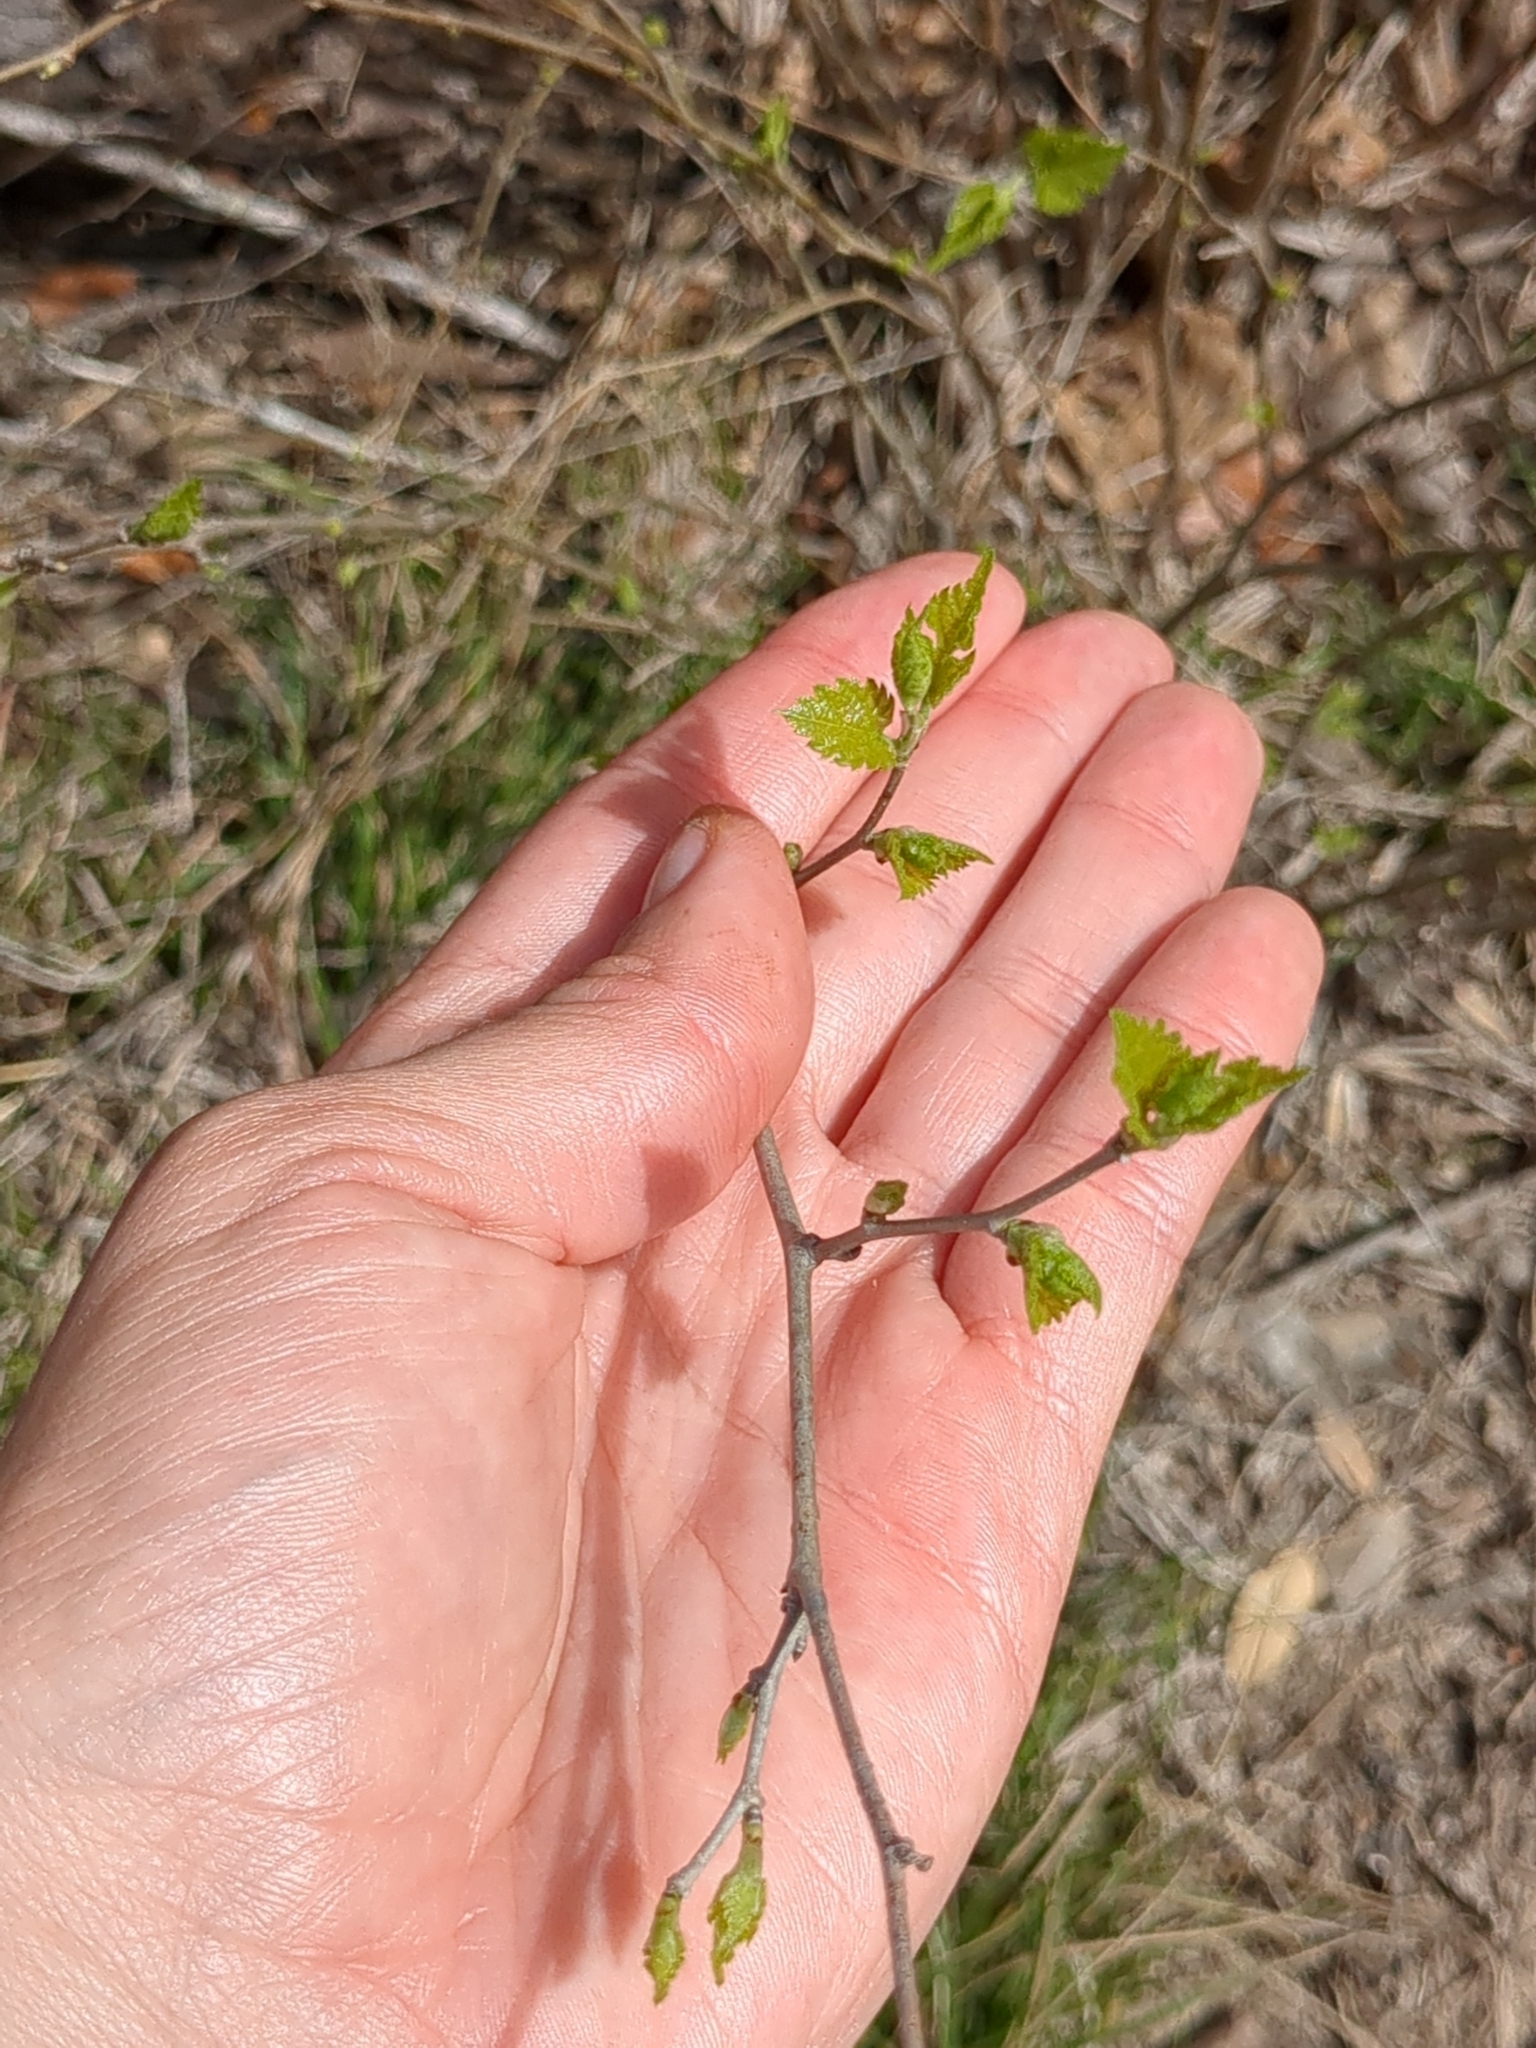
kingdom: Plantae
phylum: Tracheophyta
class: Magnoliopsida
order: Rosales
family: Moraceae
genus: Morus
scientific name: Morus microphylla
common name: Mexican mulberry
